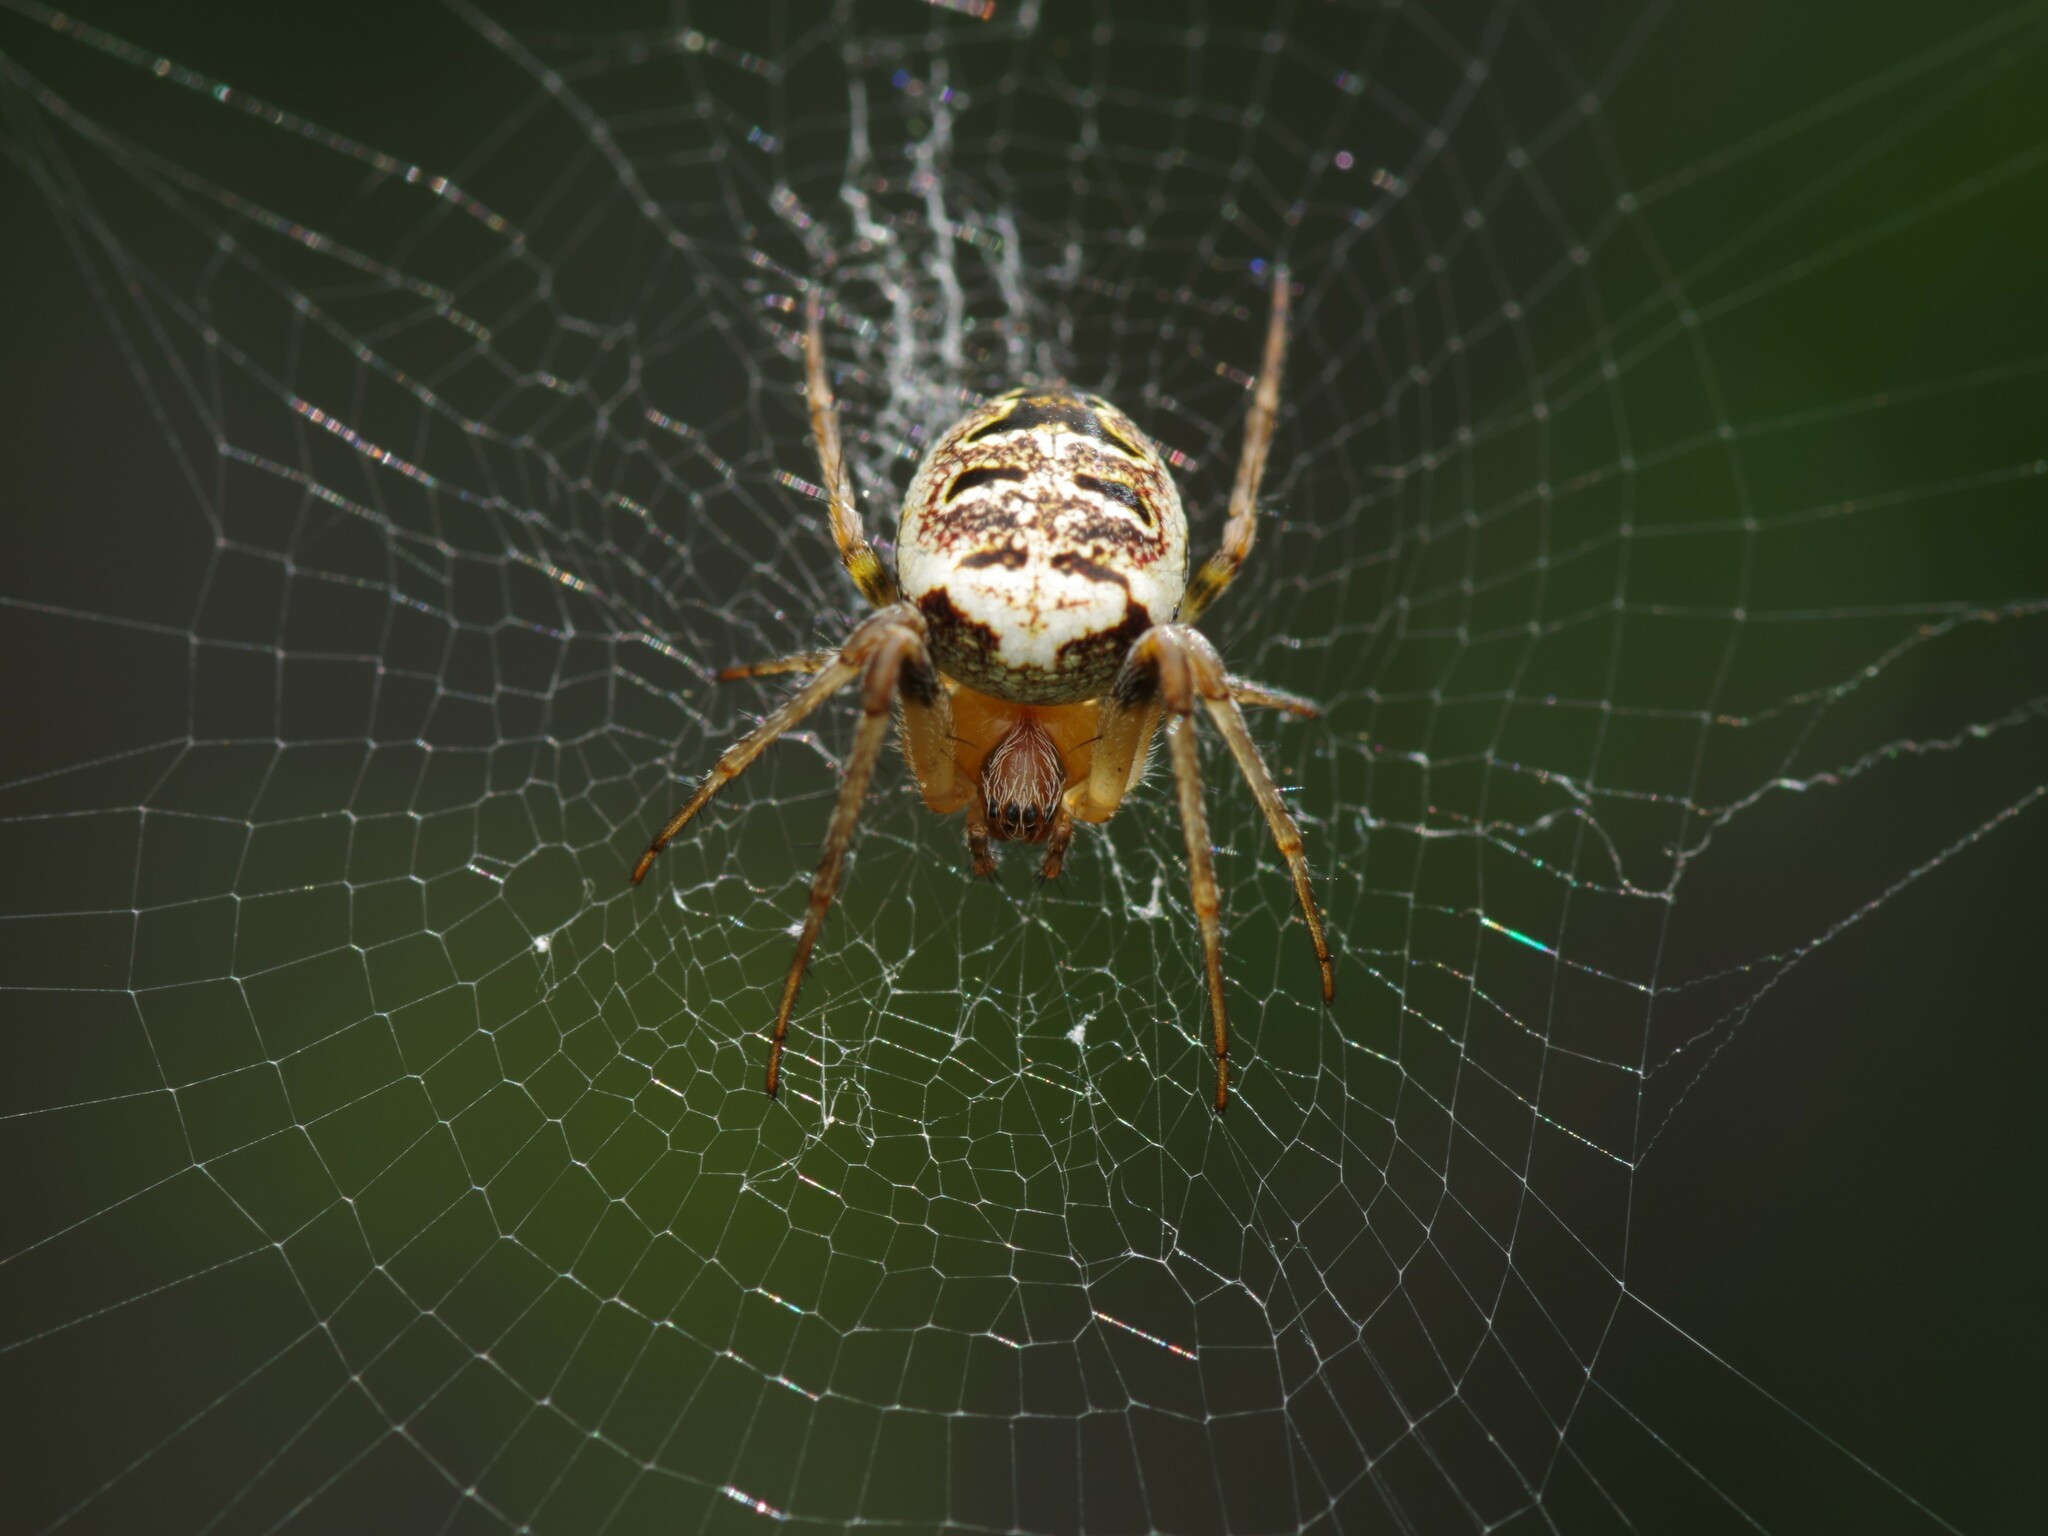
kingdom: Animalia
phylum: Arthropoda
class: Arachnida
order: Araneae
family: Araneidae
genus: Zilla
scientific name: Zilla diodia
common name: Zilla diodia
